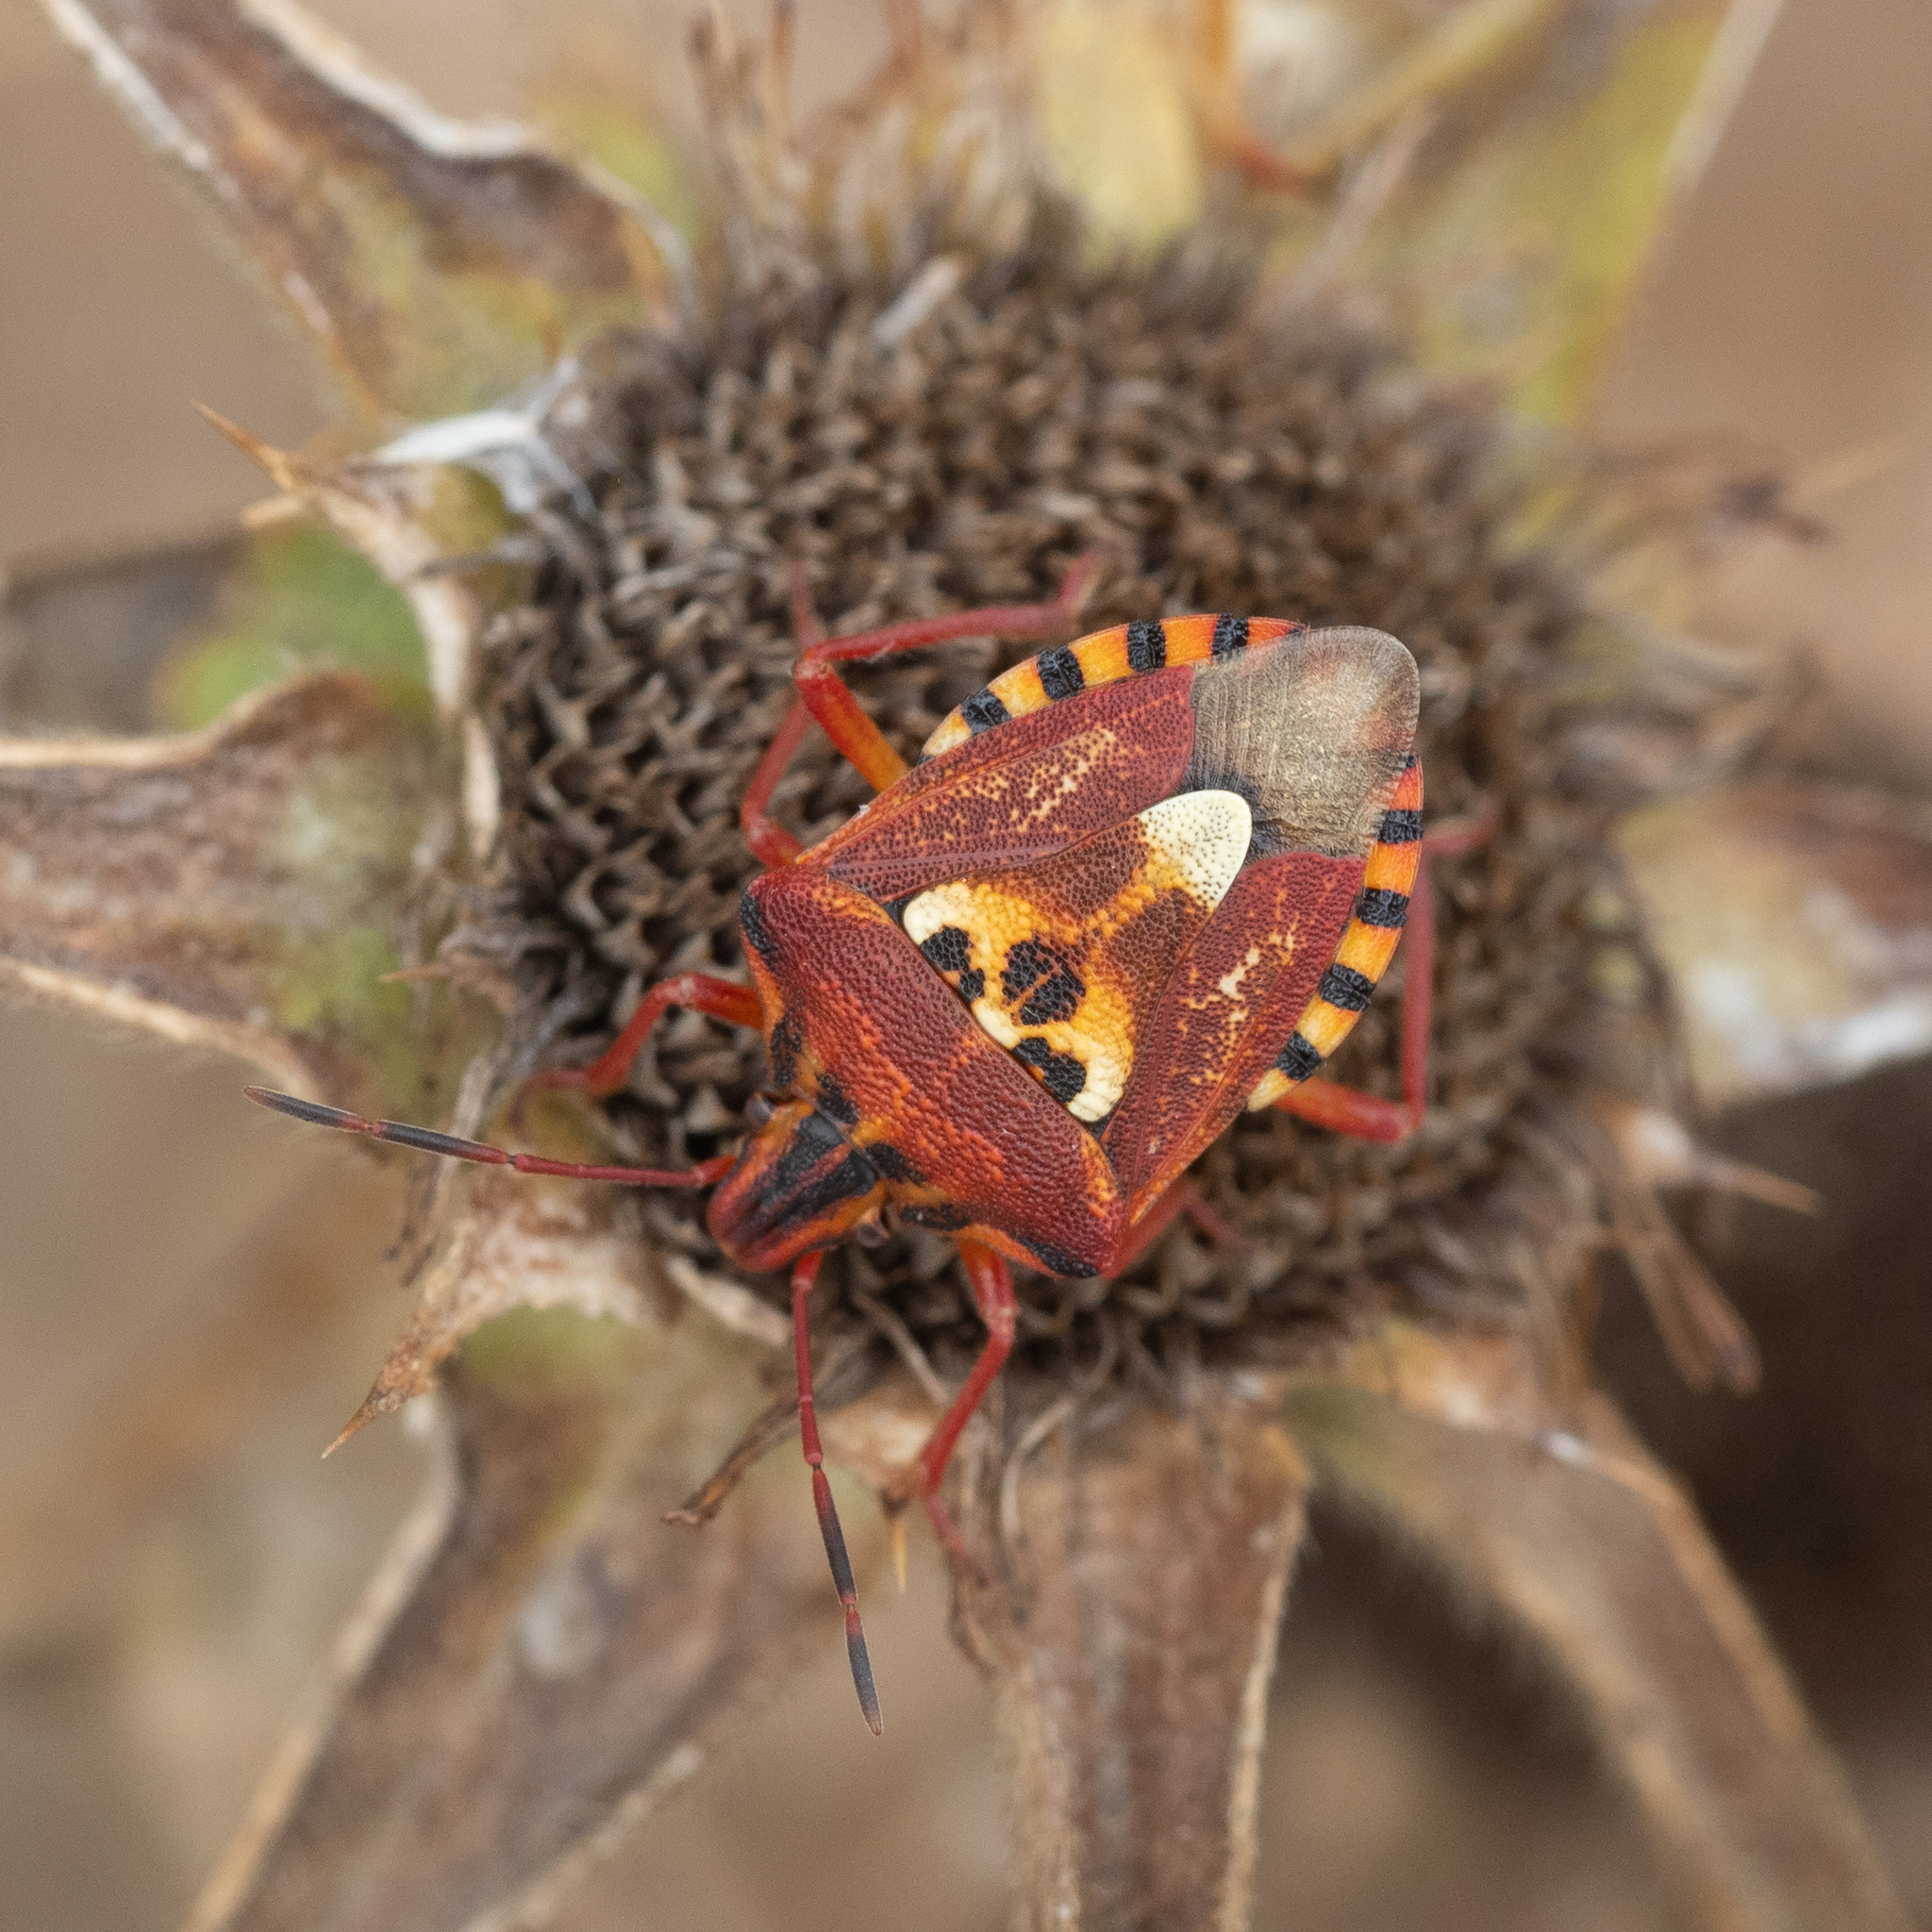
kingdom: Animalia
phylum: Arthropoda
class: Insecta
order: Hemiptera
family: Miridae
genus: Orthops
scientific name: Orthops kalmii
